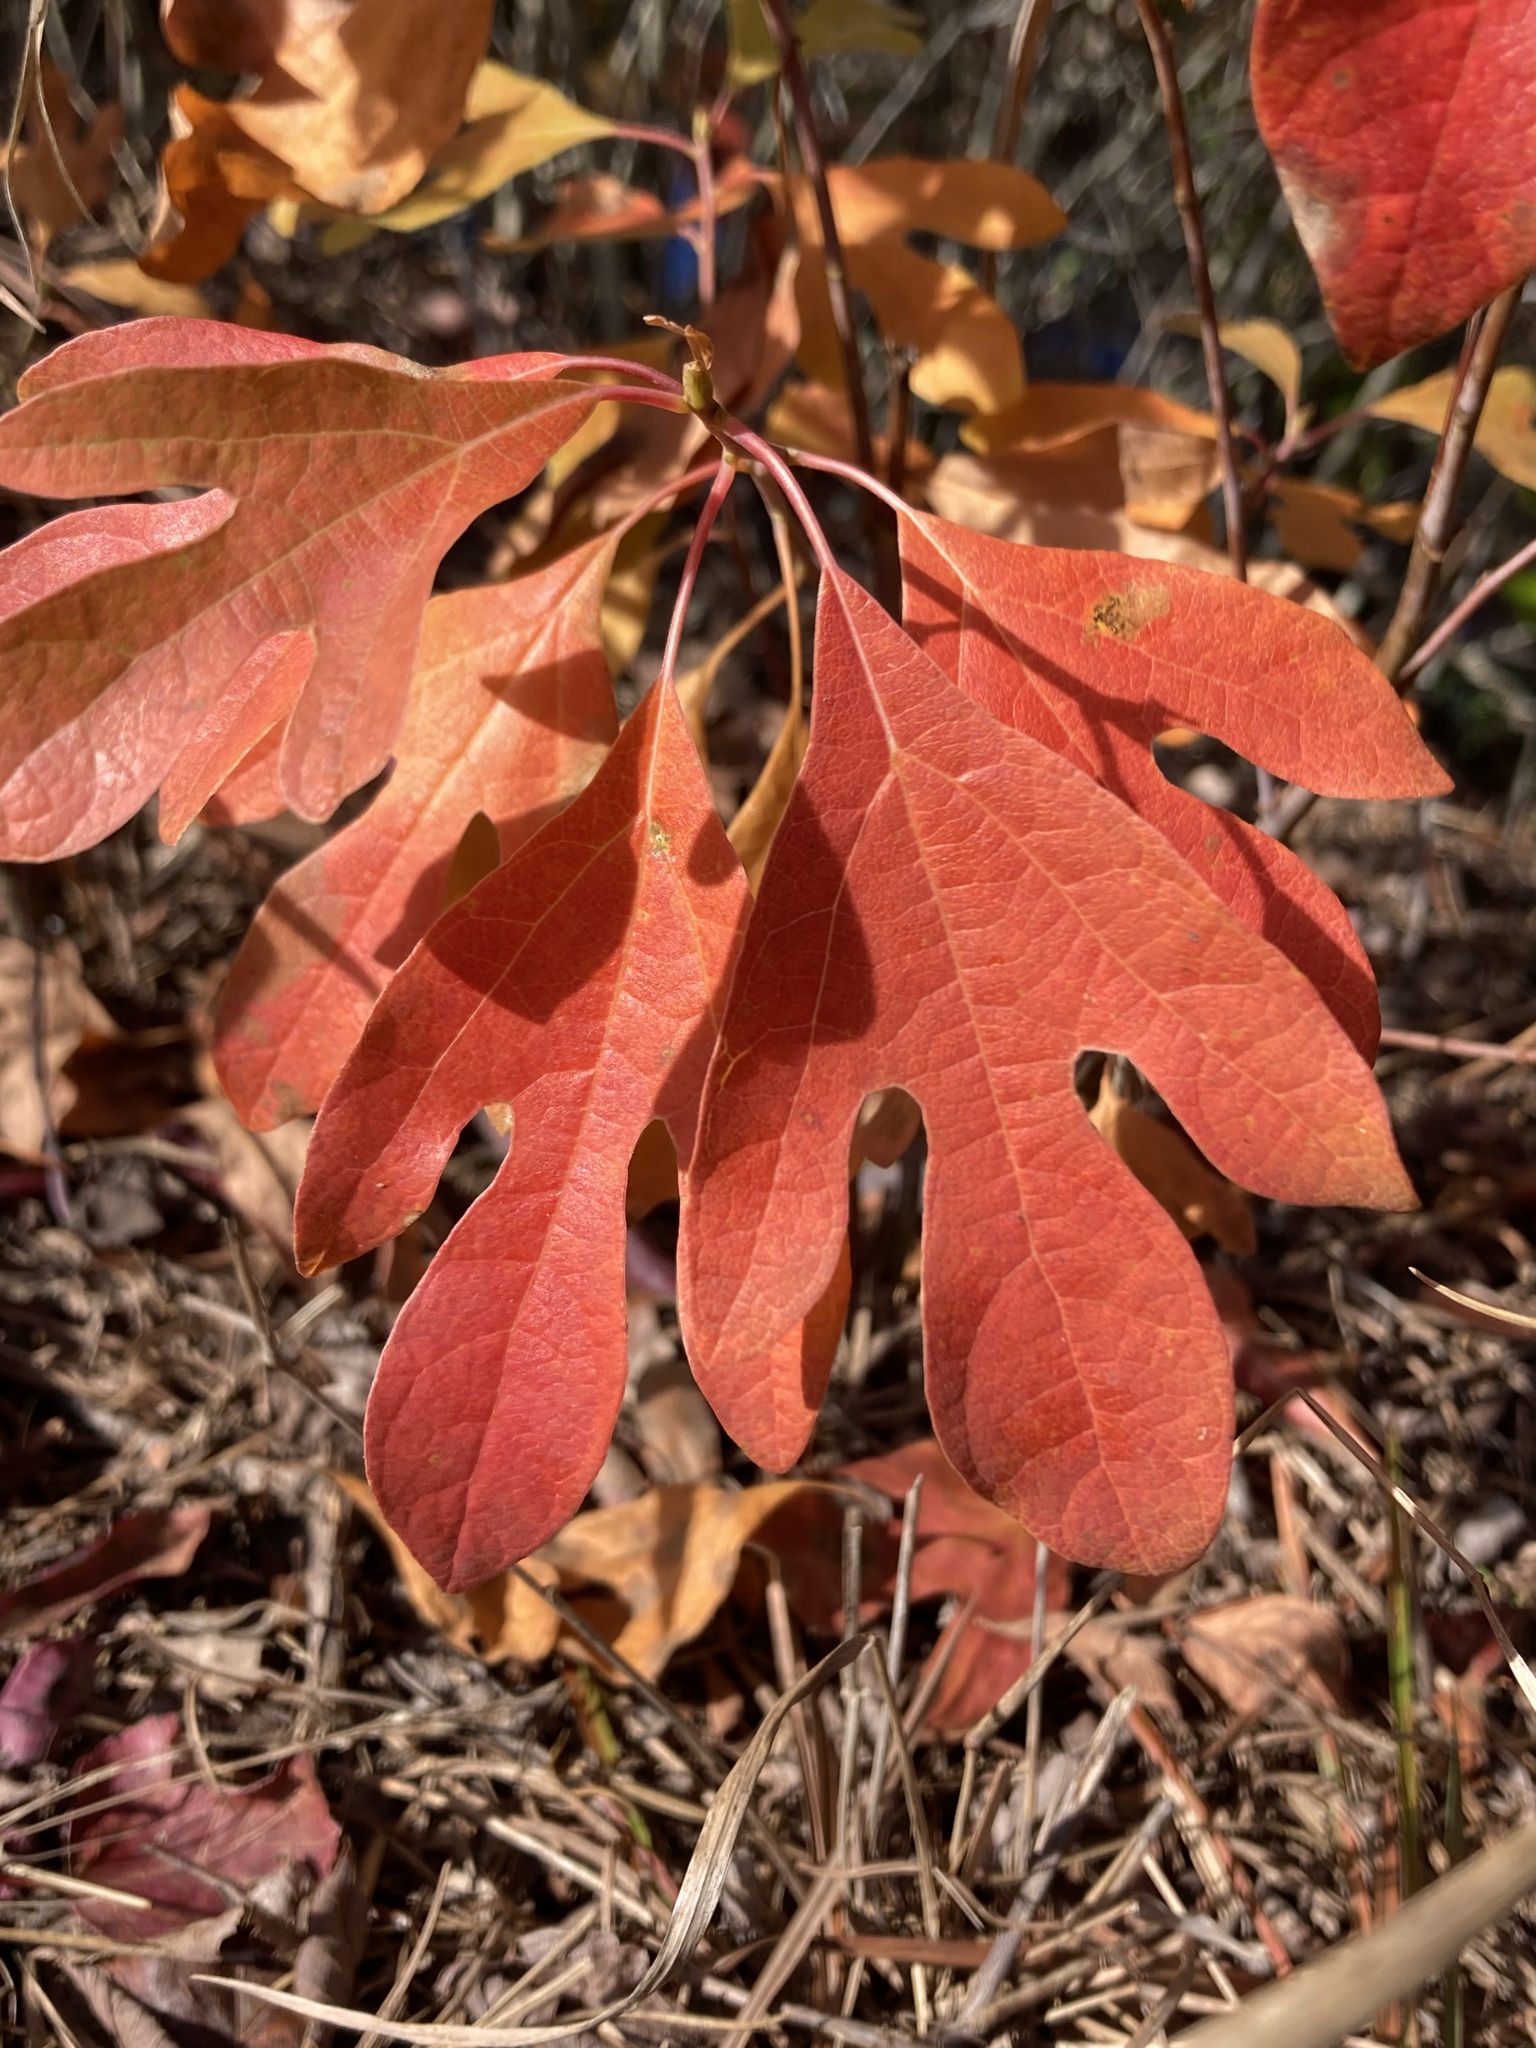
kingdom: Plantae
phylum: Tracheophyta
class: Magnoliopsida
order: Laurales
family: Lauraceae
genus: Sassafras
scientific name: Sassafras albidum
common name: Sassafras
